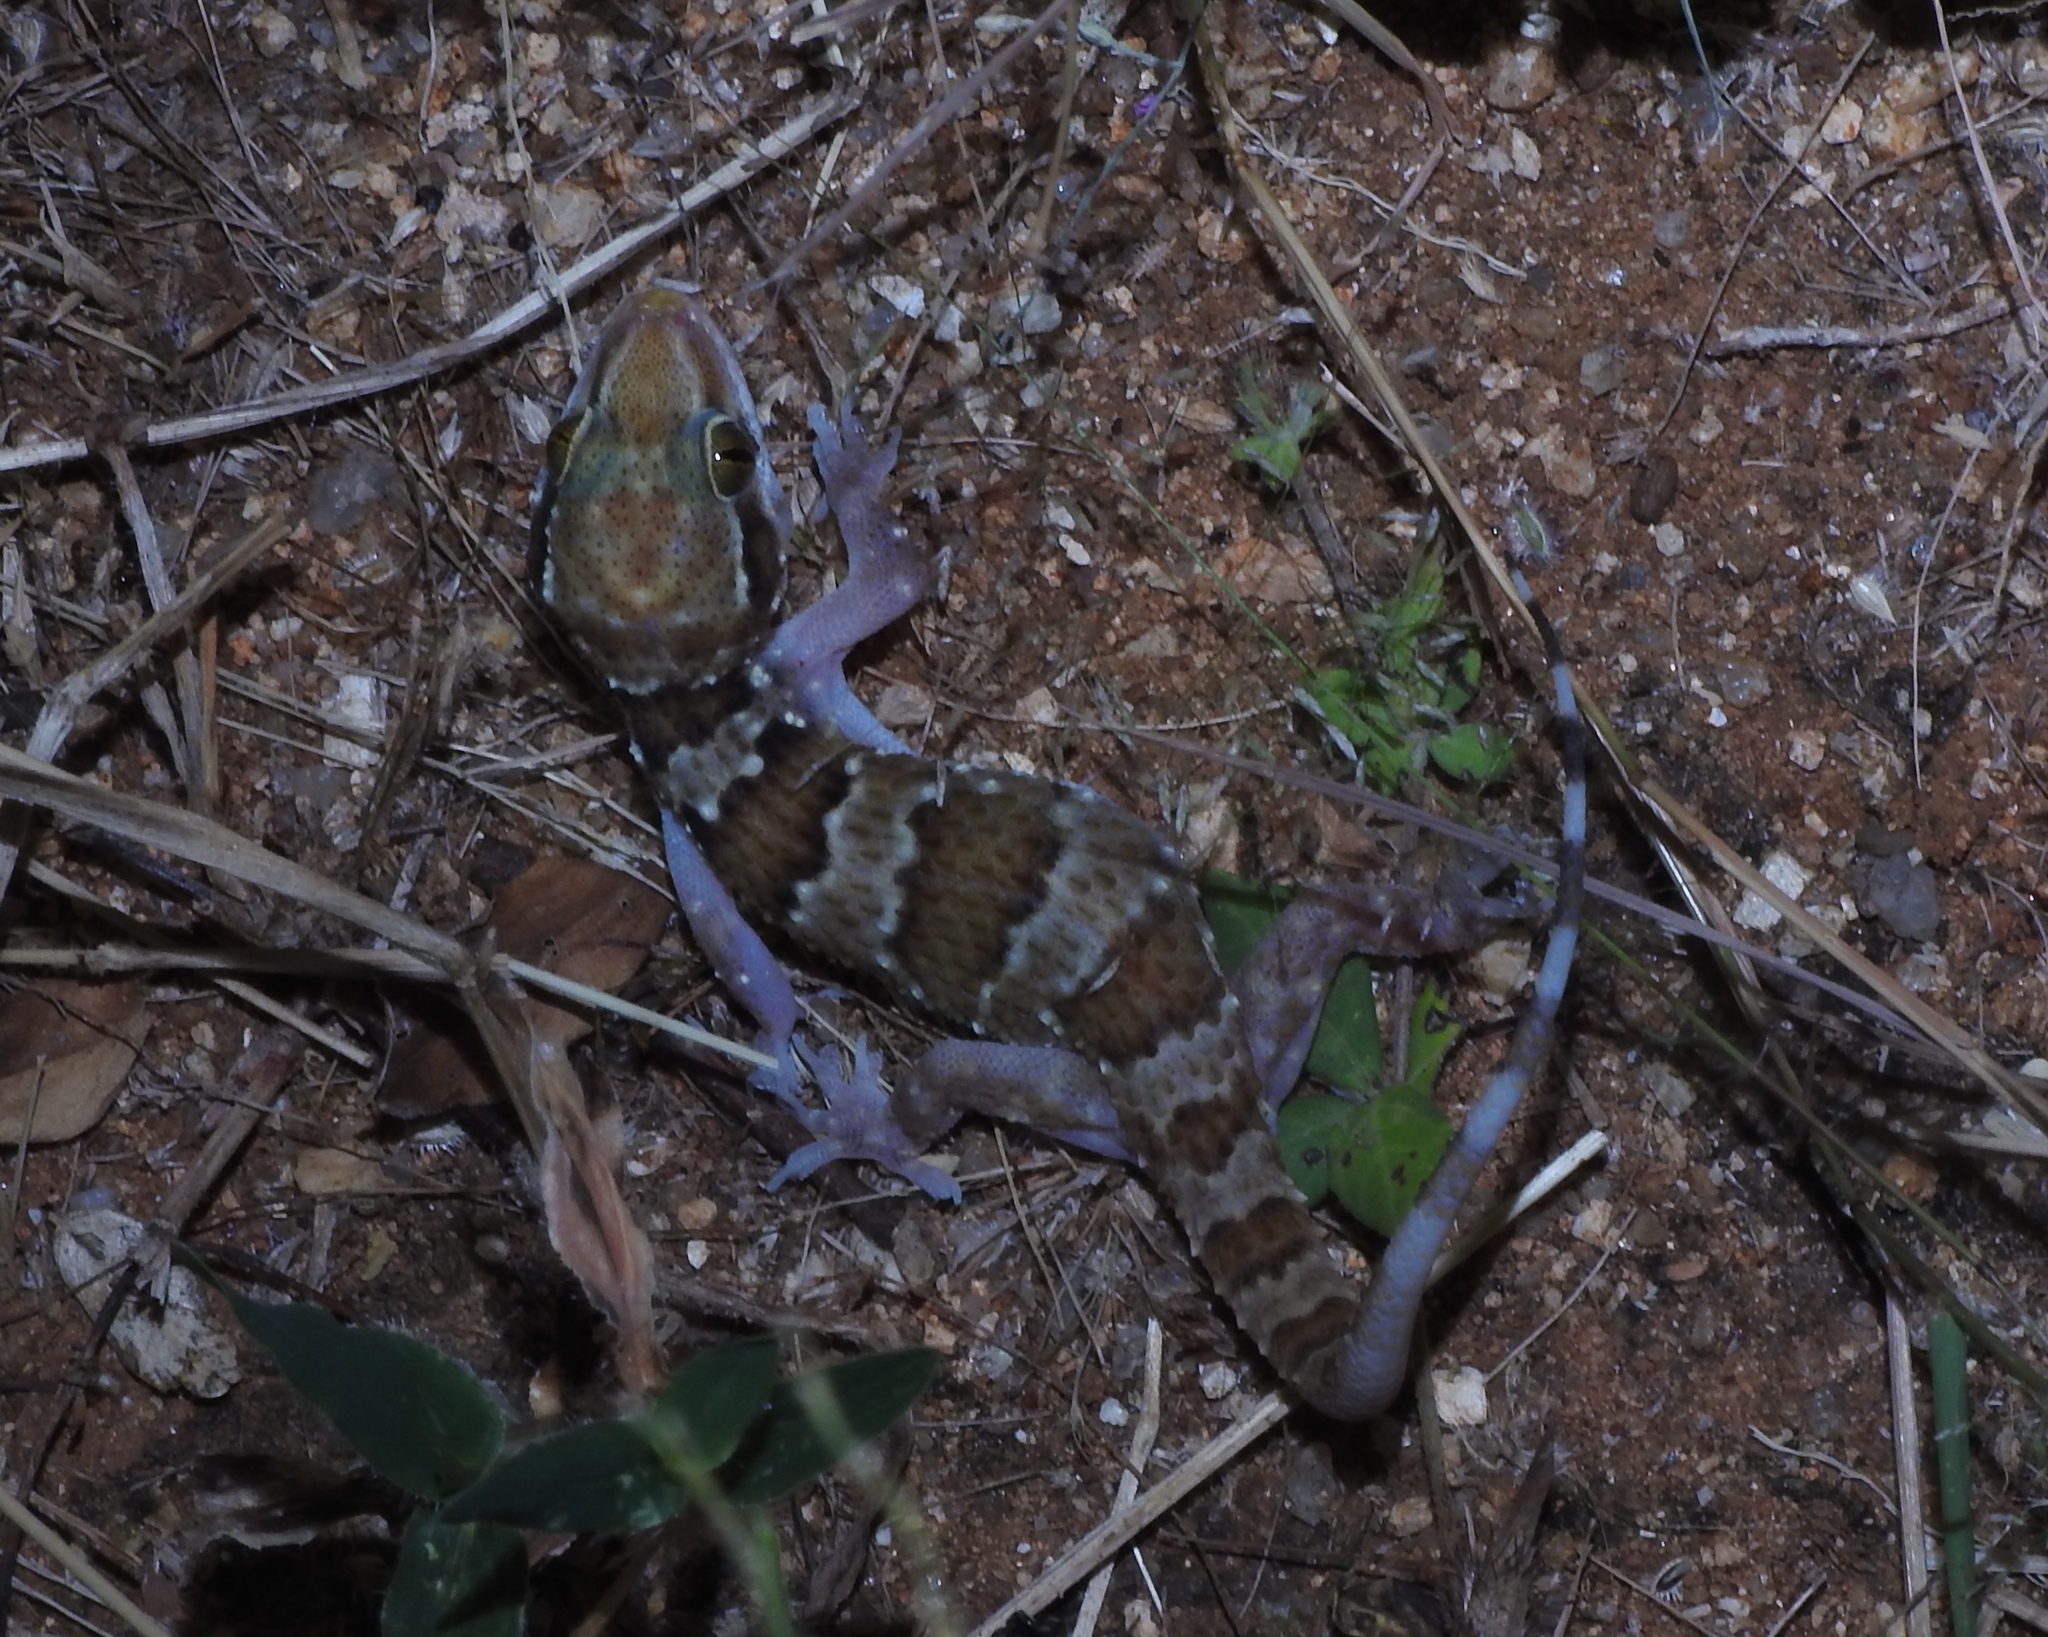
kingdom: Animalia
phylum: Chordata
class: Squamata
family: Gekkonidae
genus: Hemidactylus
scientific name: Hemidactylus triedrus
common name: Blotched house gecko
